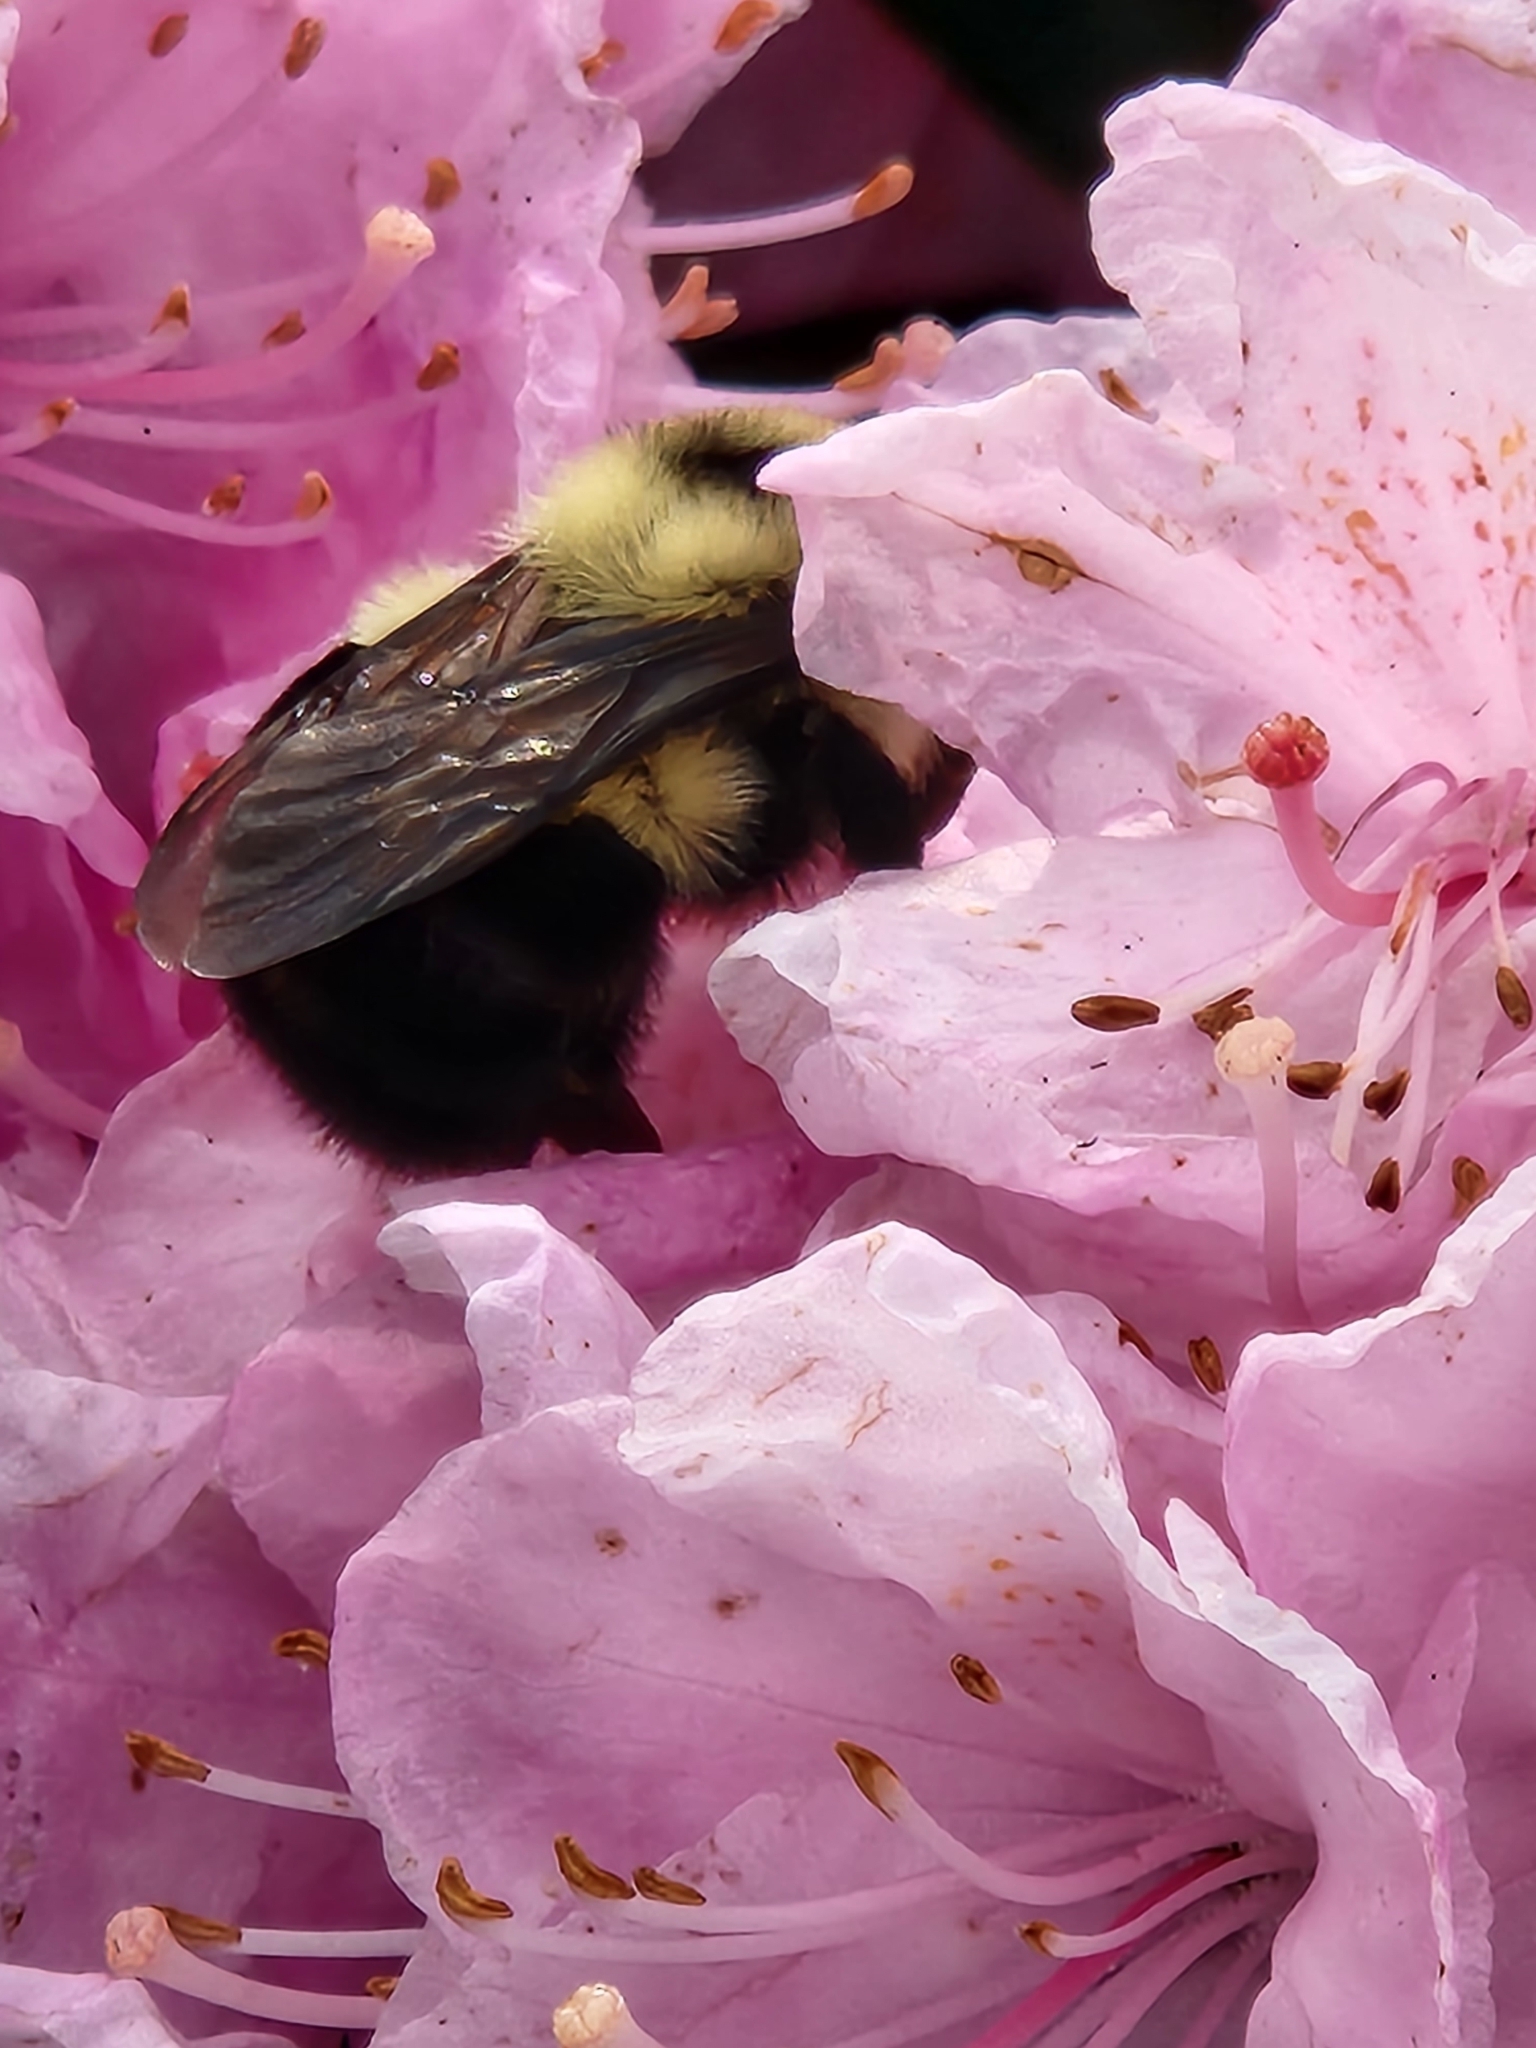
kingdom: Animalia
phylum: Arthropoda
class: Insecta
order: Hymenoptera
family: Apidae
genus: Bombus
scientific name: Bombus bimaculatus
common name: Two-spotted bumble bee
